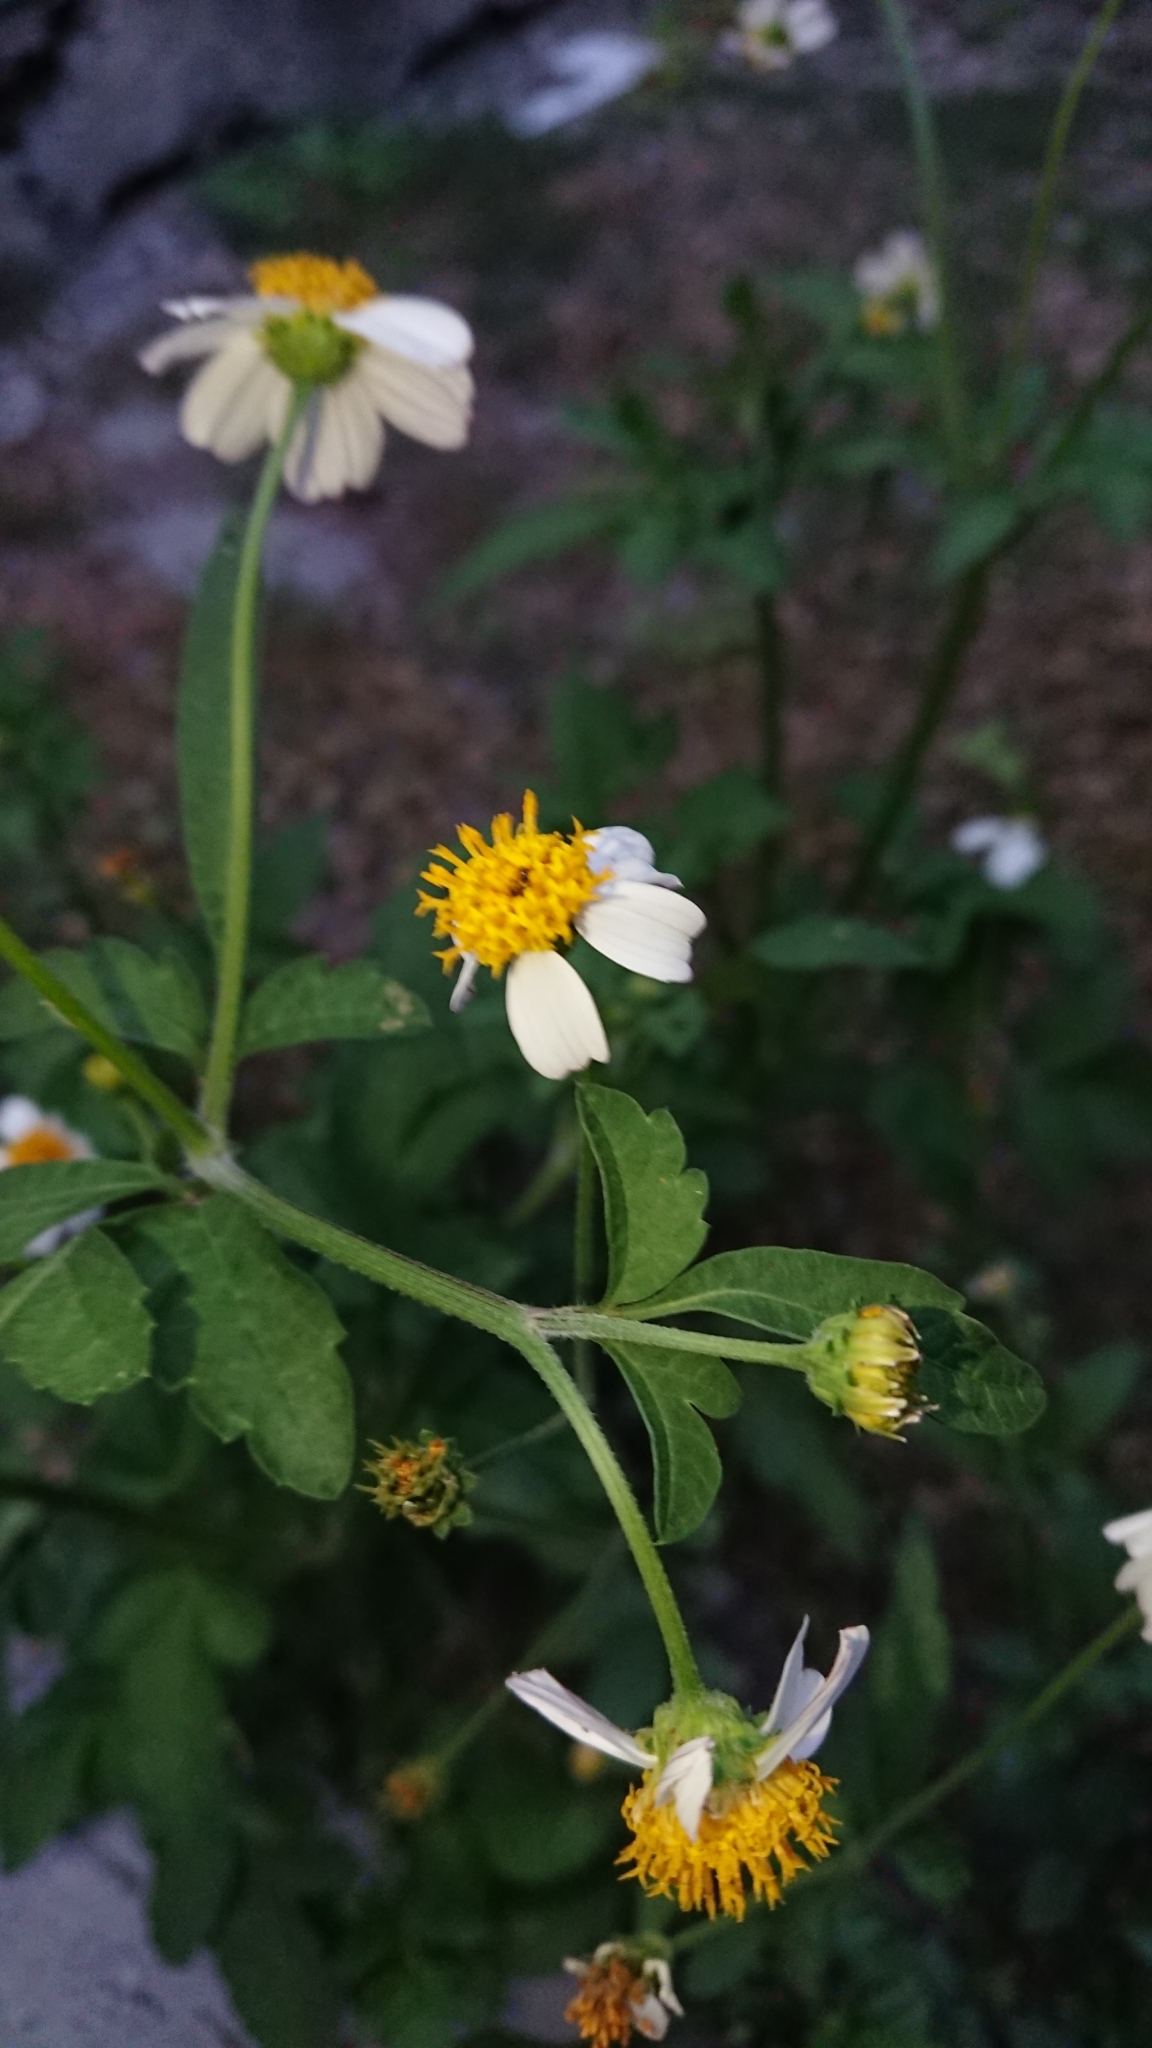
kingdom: Plantae
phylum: Tracheophyta
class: Magnoliopsida
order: Asterales
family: Asteraceae
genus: Bidens
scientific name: Bidens pilosa
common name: Black-jack
